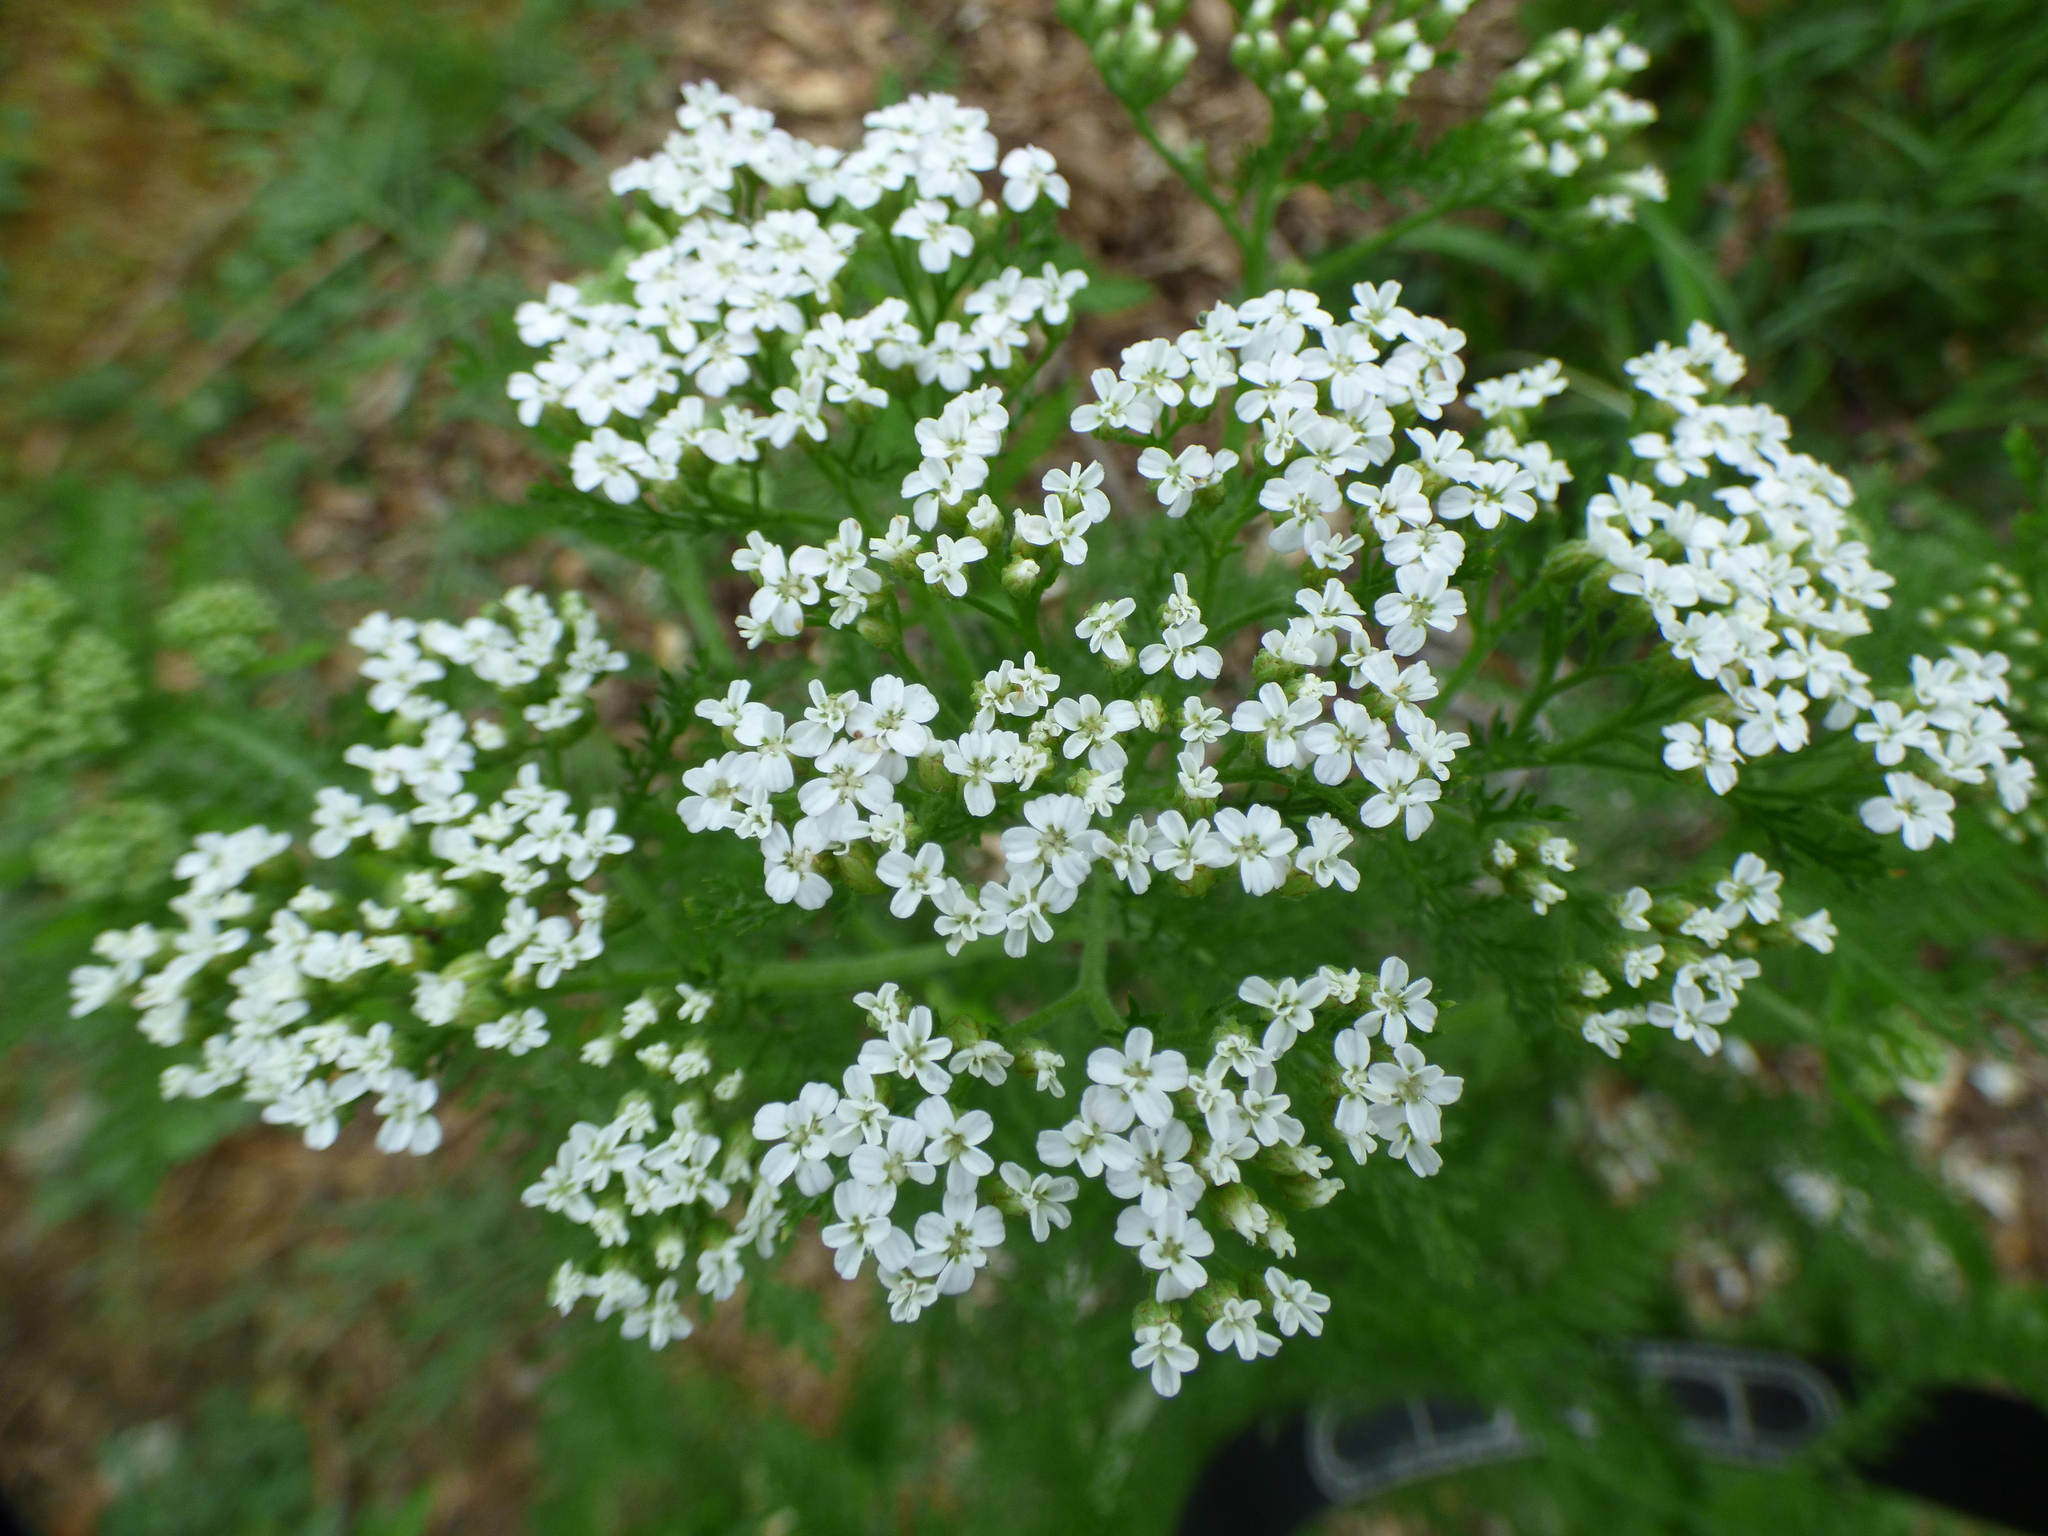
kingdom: Plantae
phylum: Tracheophyta
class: Magnoliopsida
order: Asterales
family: Asteraceae
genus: Achillea
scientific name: Achillea millefolium
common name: Yarrow
